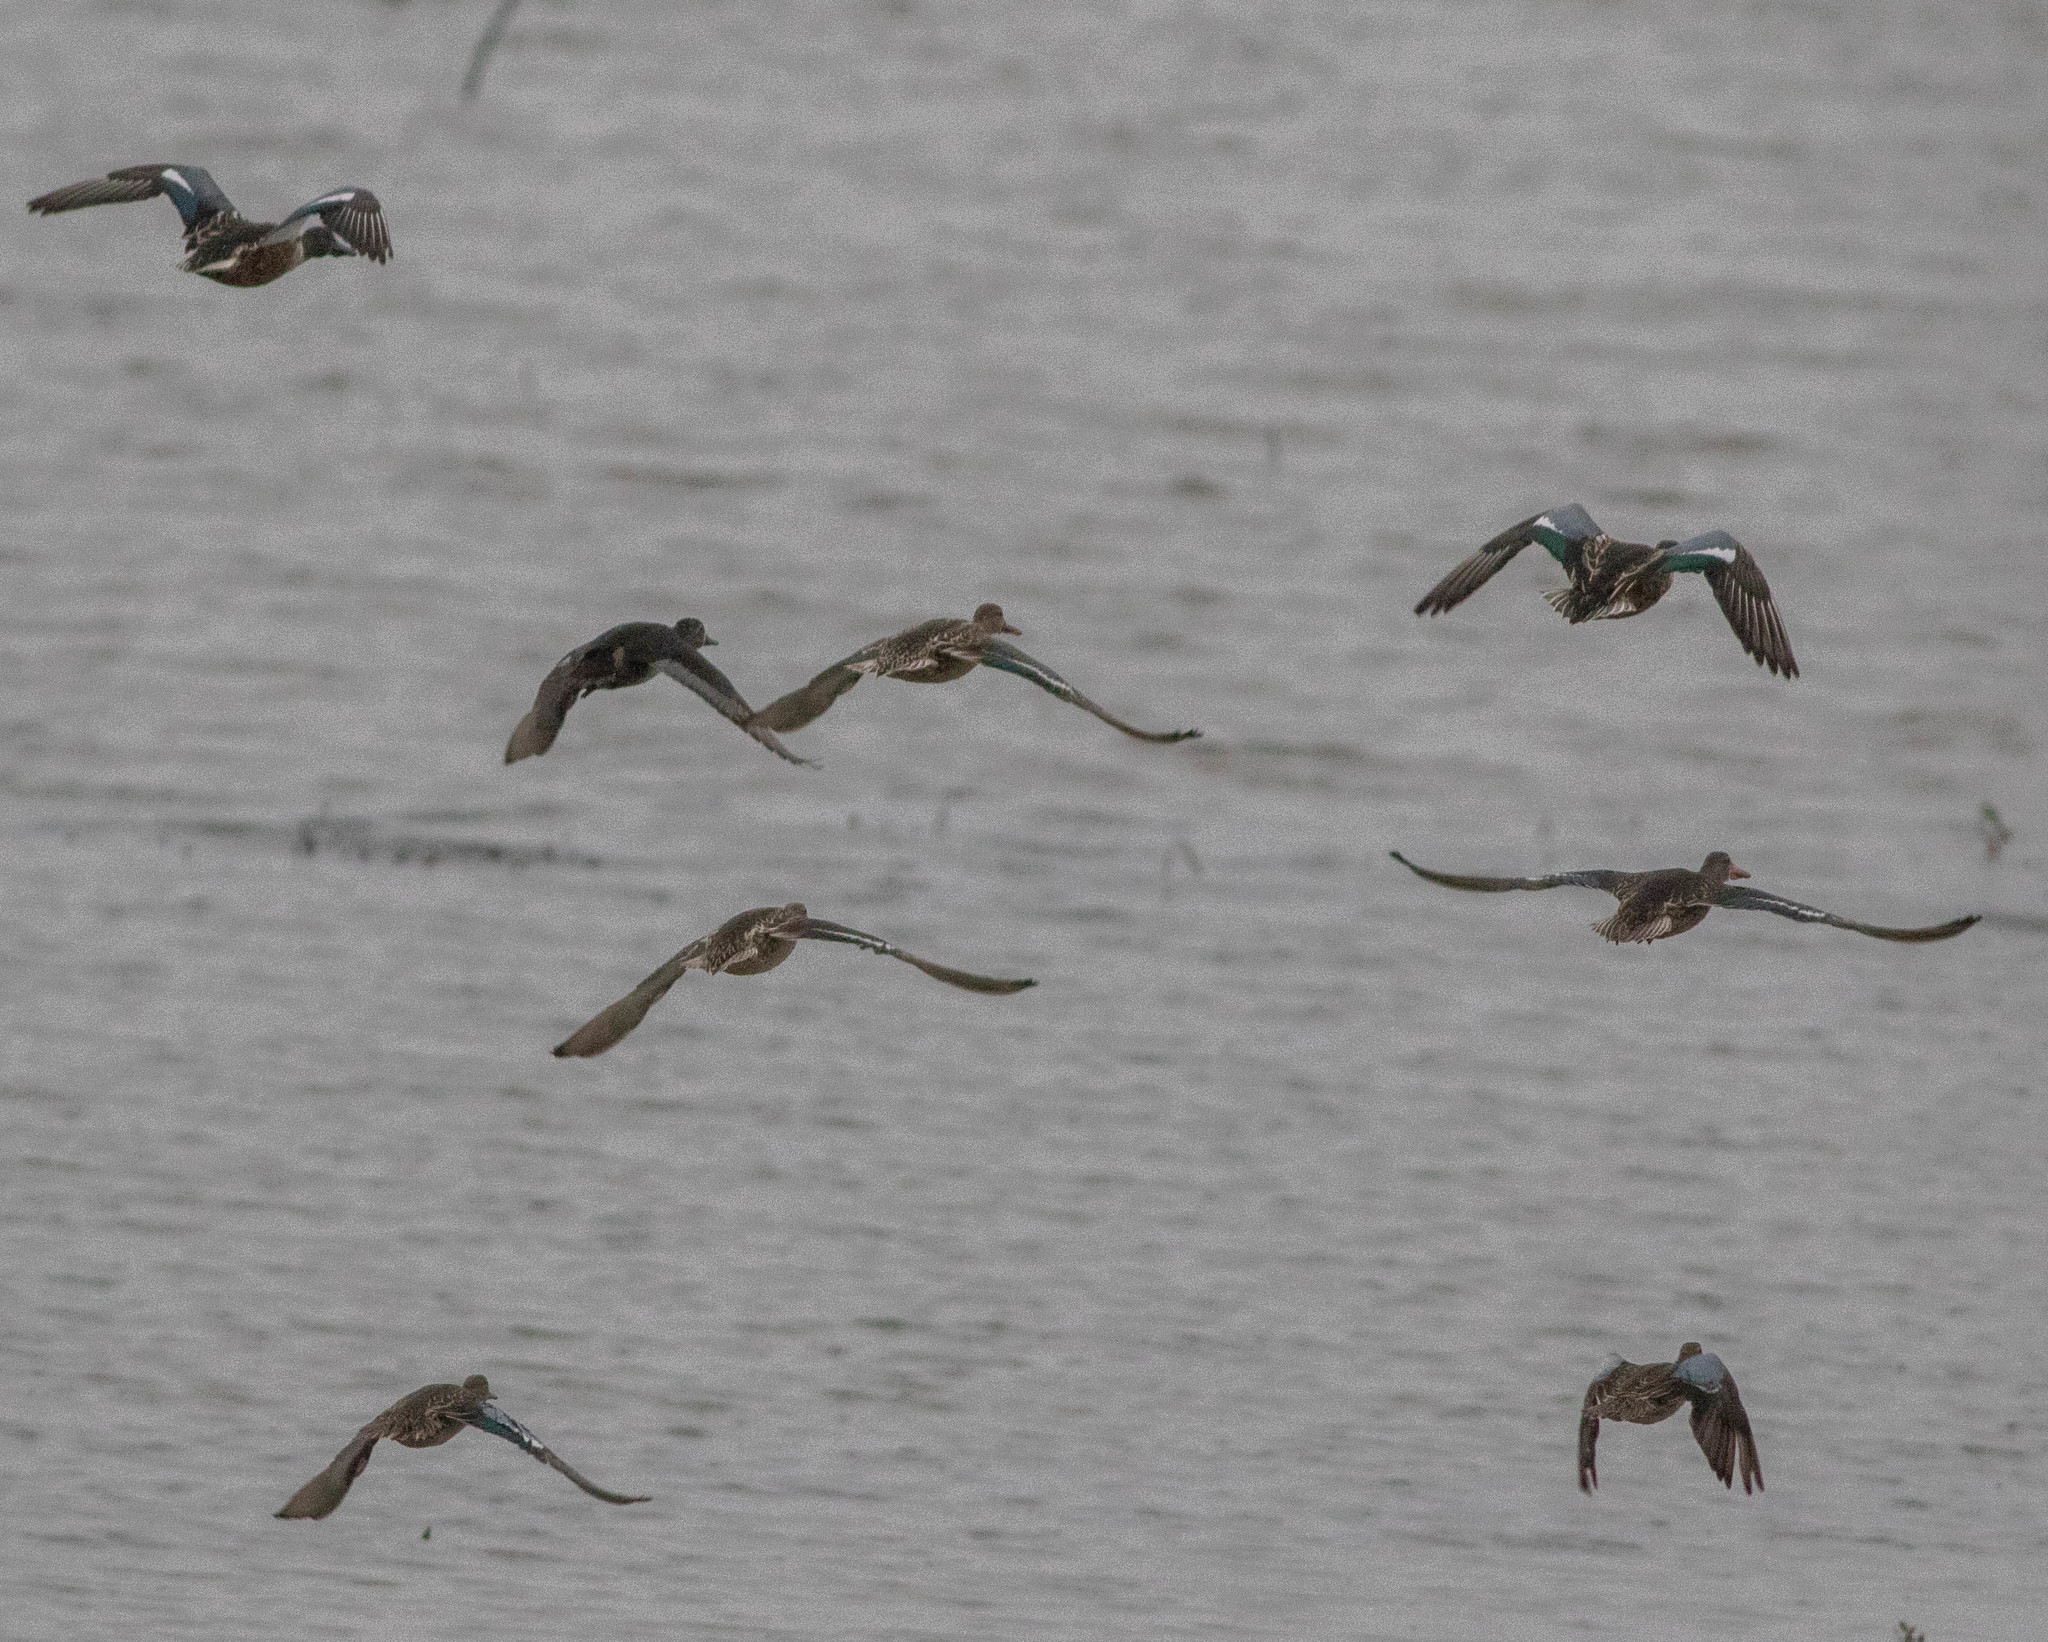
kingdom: Animalia
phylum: Chordata
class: Aves
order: Anseriformes
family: Anatidae
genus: Spatula
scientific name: Spatula clypeata
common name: Northern shoveler
